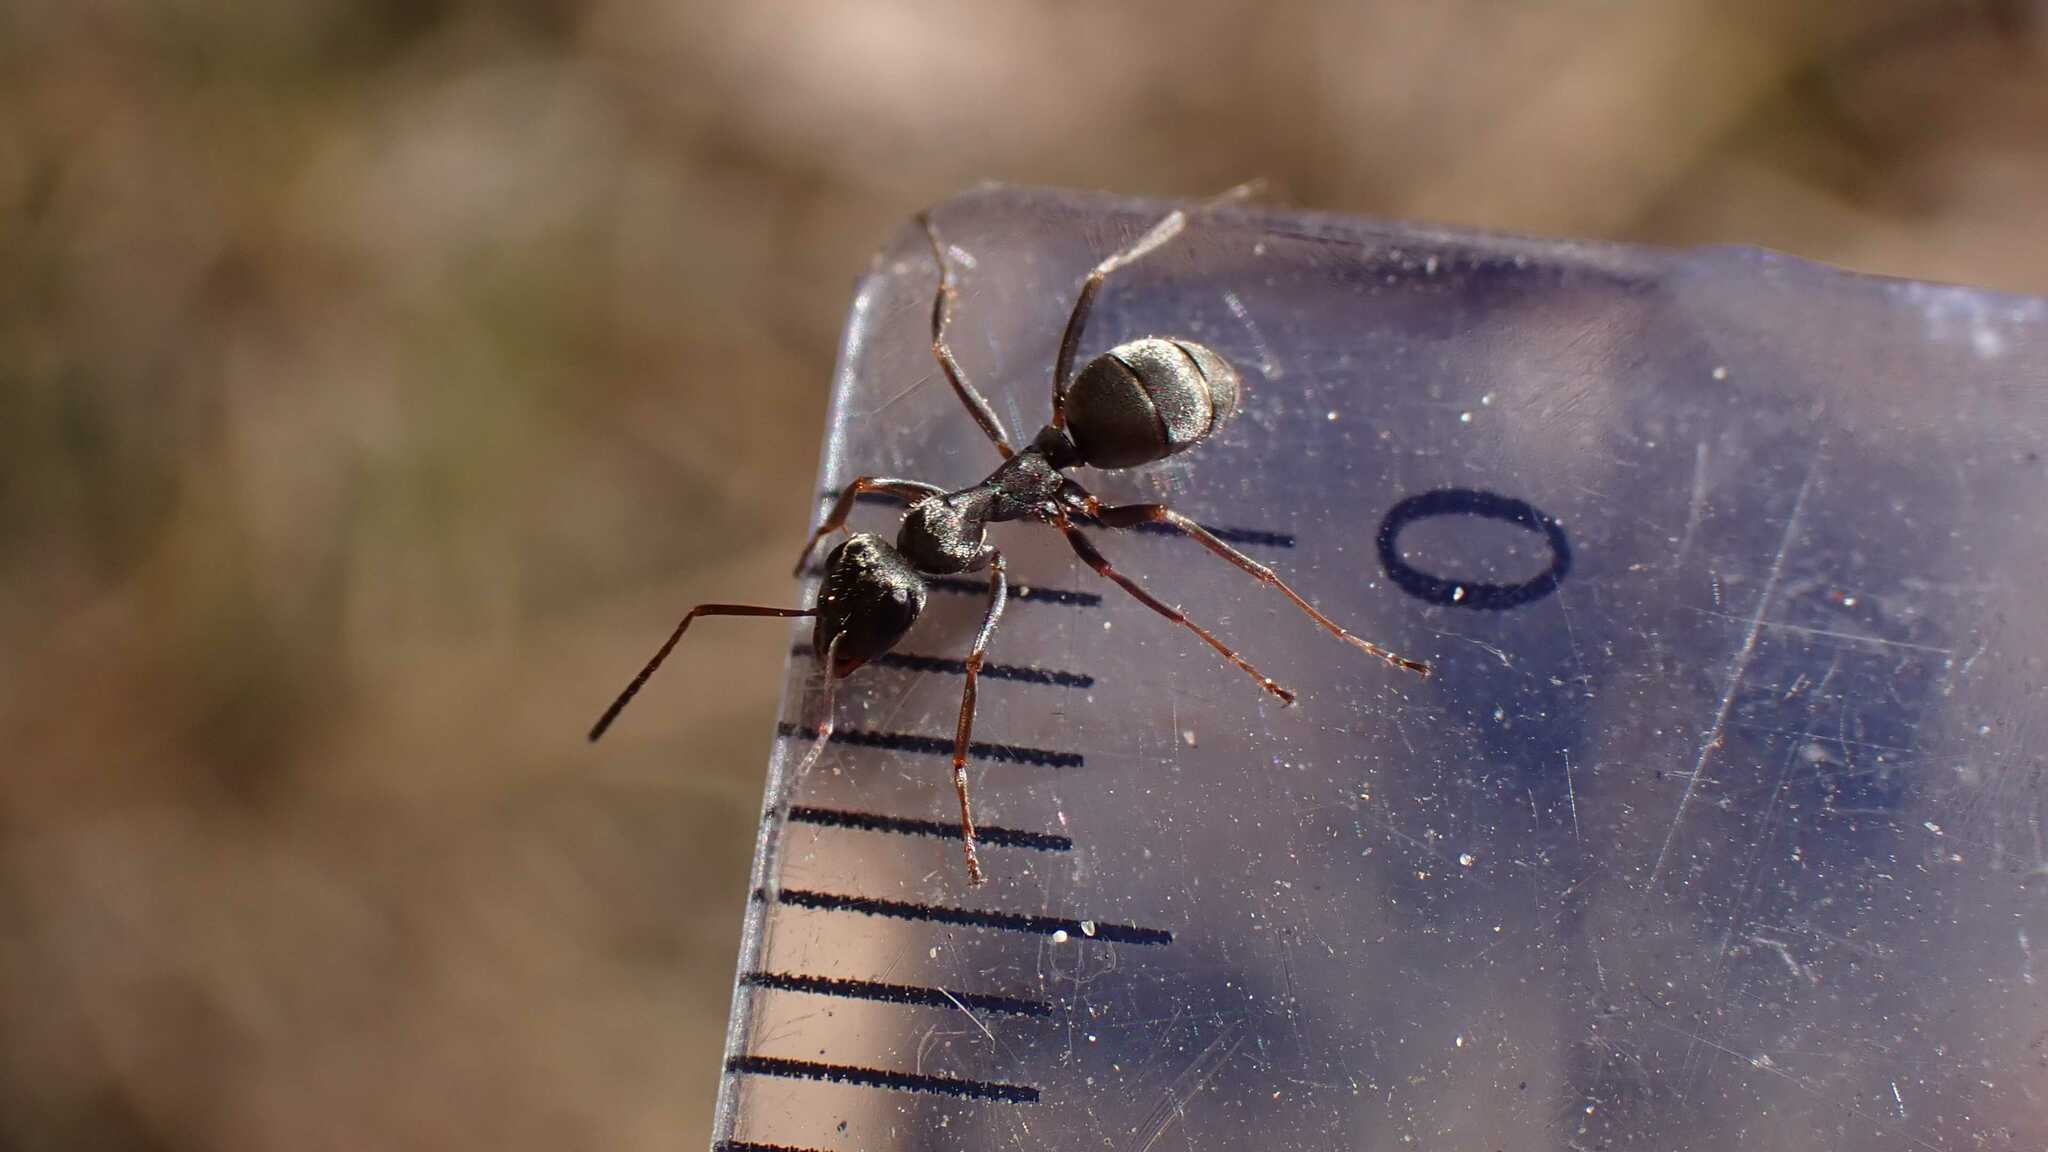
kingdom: Animalia
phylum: Arthropoda
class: Insecta
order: Hymenoptera
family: Formicidae
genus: Formica
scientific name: Formica cinerea
